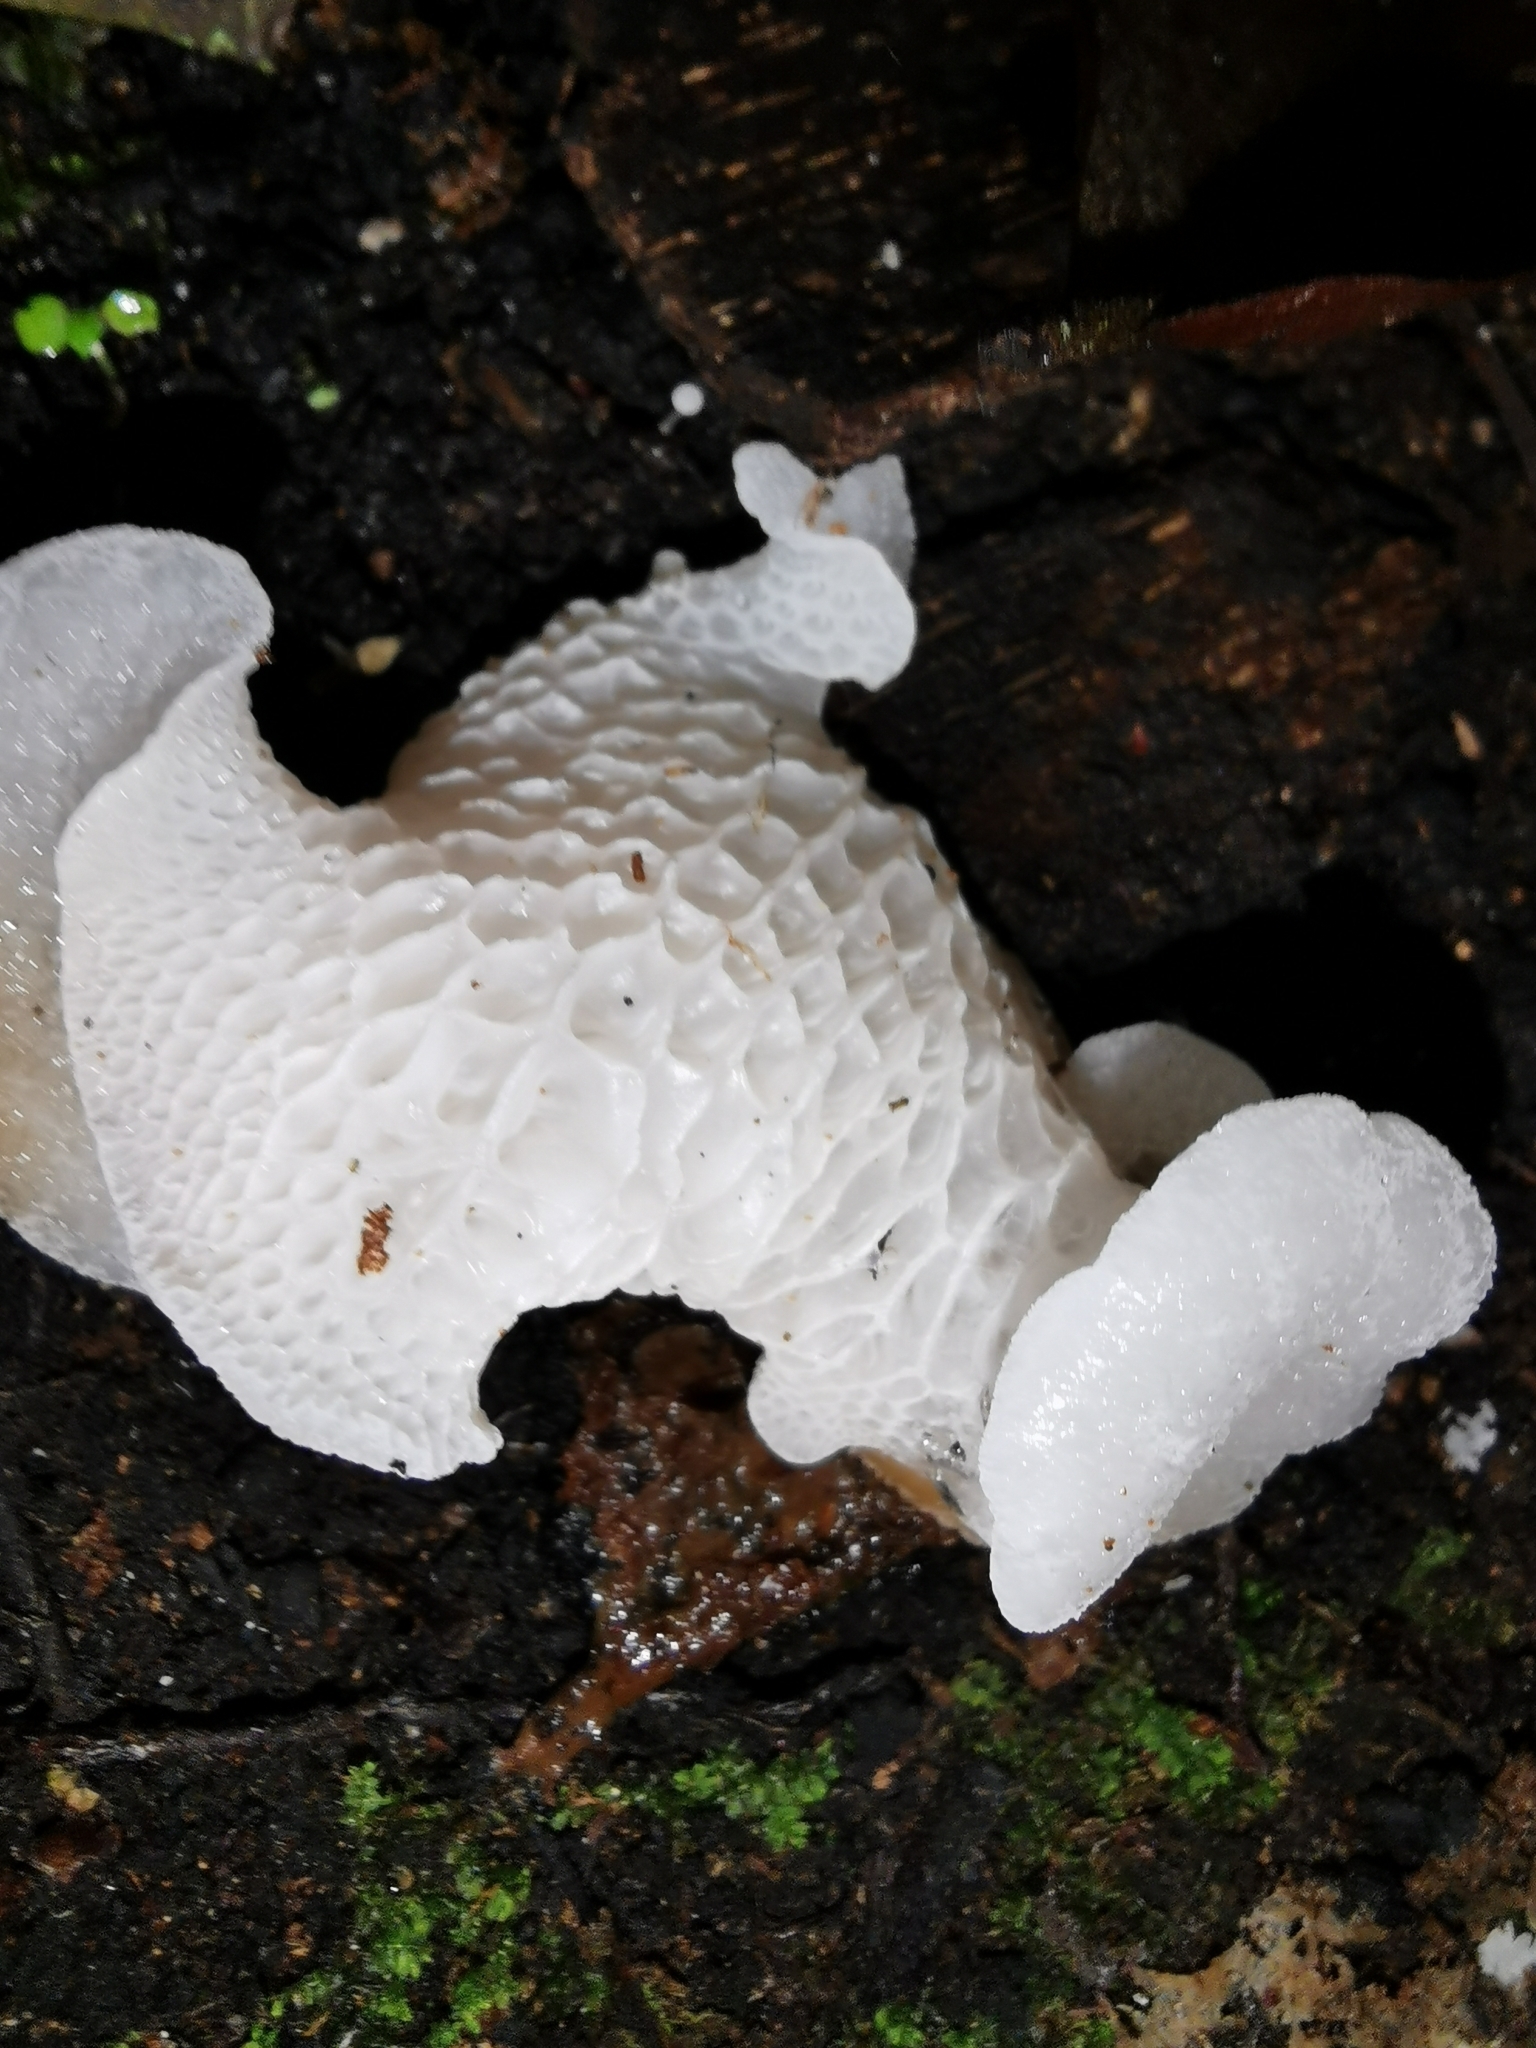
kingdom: Fungi
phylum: Basidiomycota
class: Agaricomycetes
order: Agaricales
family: Mycenaceae
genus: Favolaschia
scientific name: Favolaschia pustulosa
